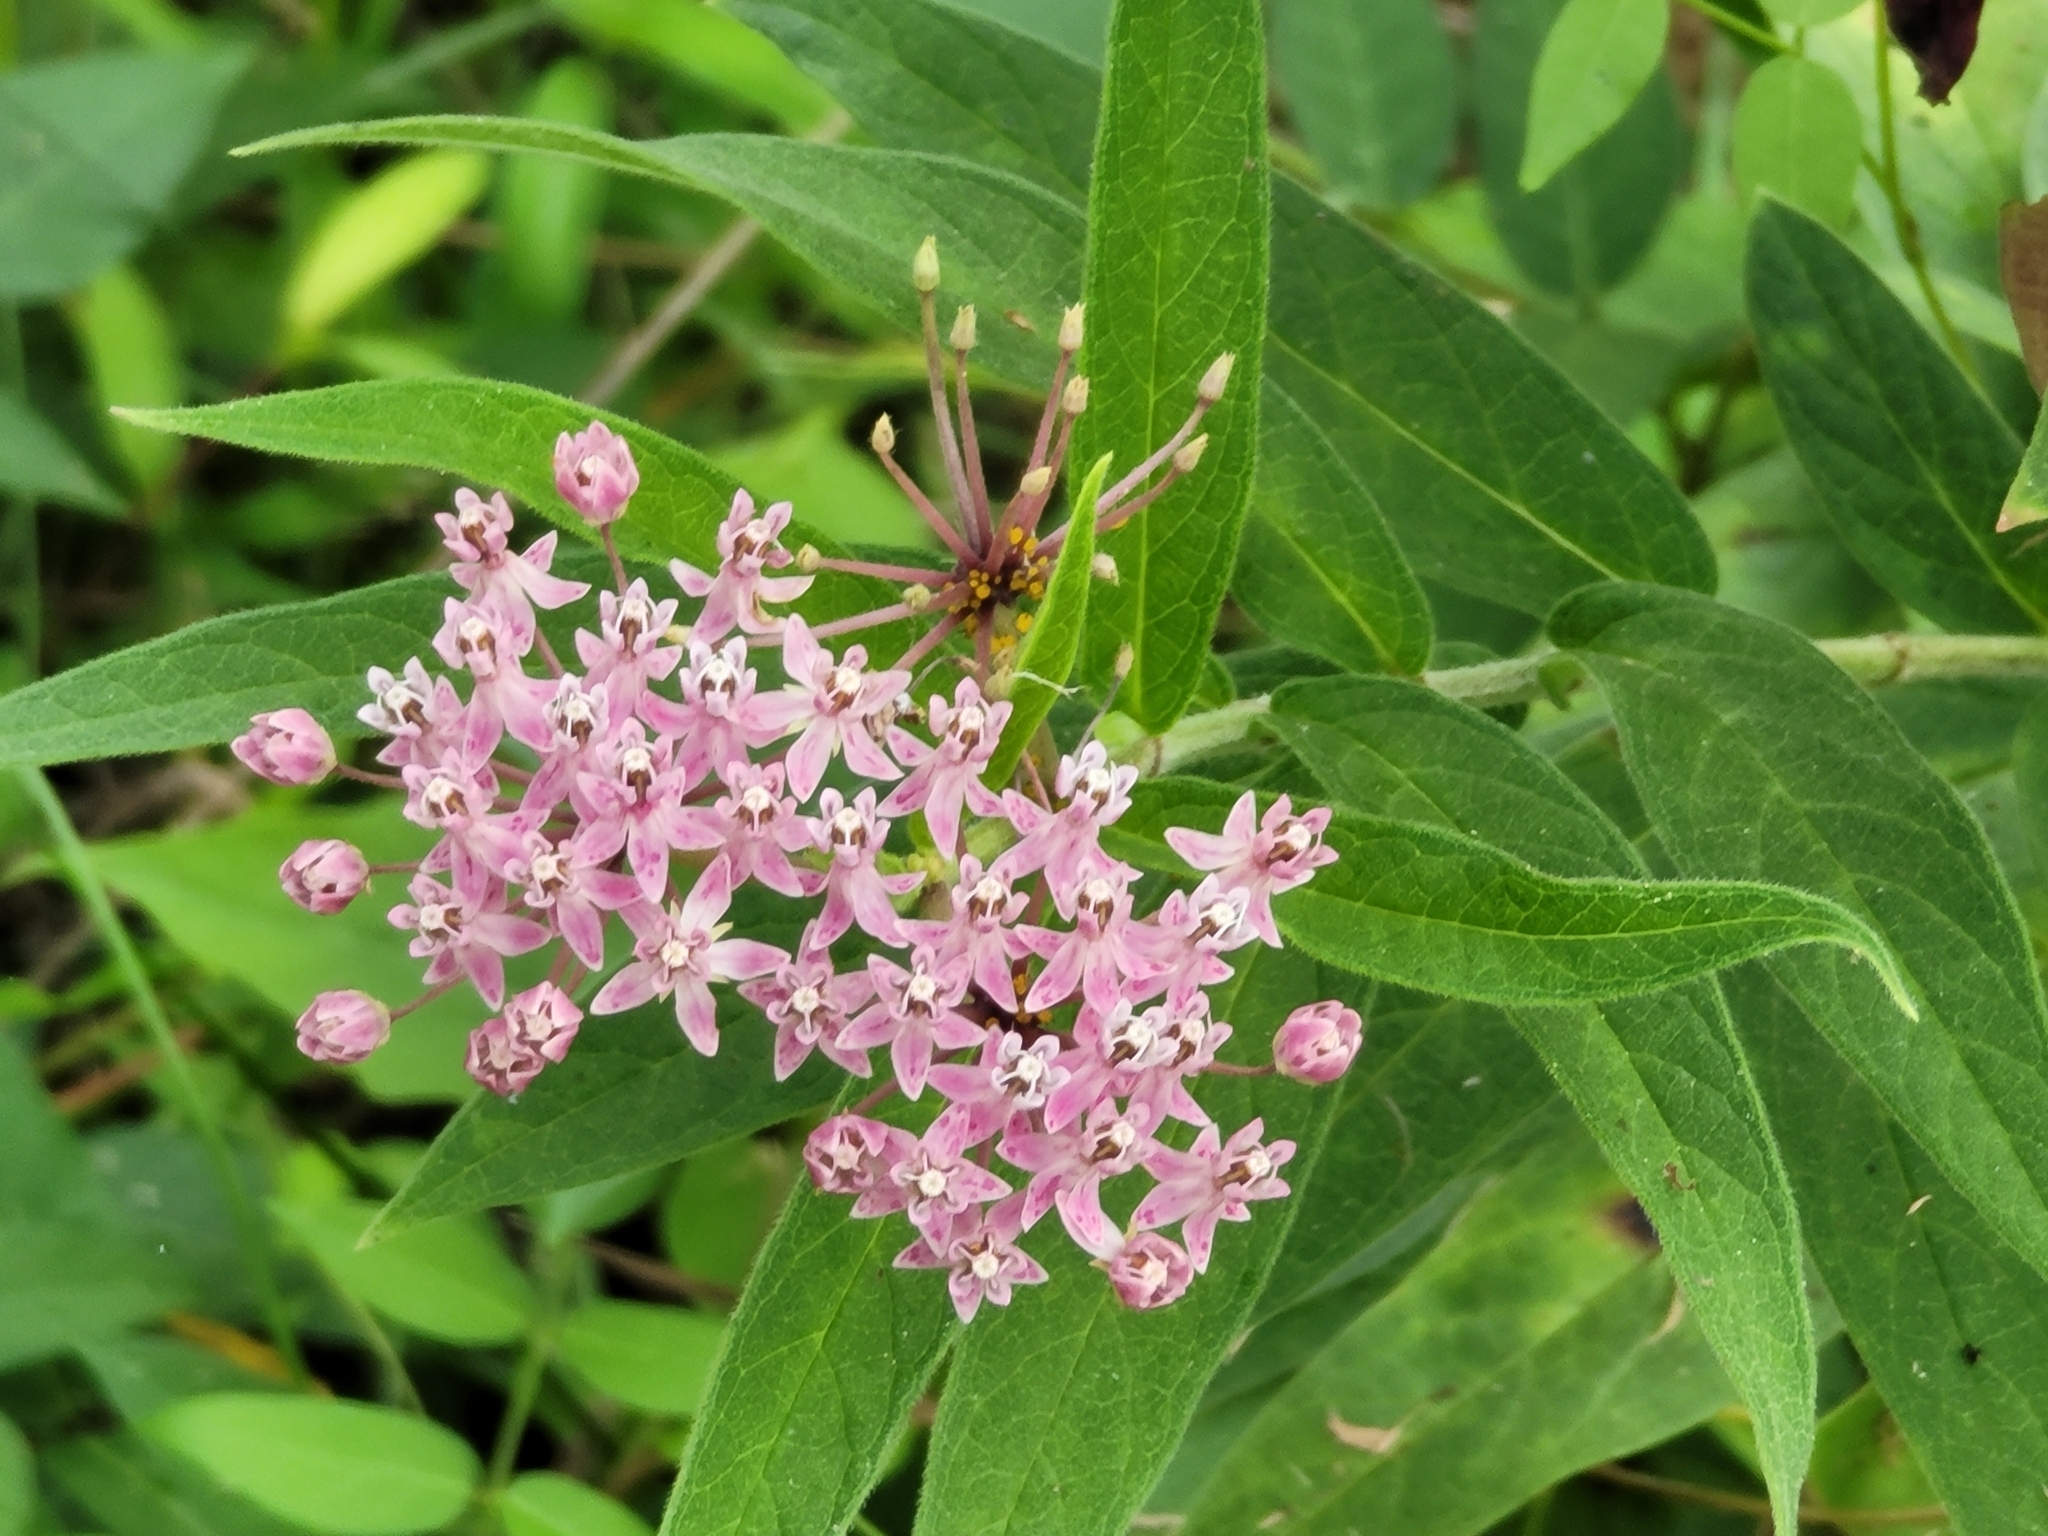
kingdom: Plantae
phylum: Tracheophyta
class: Magnoliopsida
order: Gentianales
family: Apocynaceae
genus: Asclepias
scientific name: Asclepias incarnata
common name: Swamp milkweed
